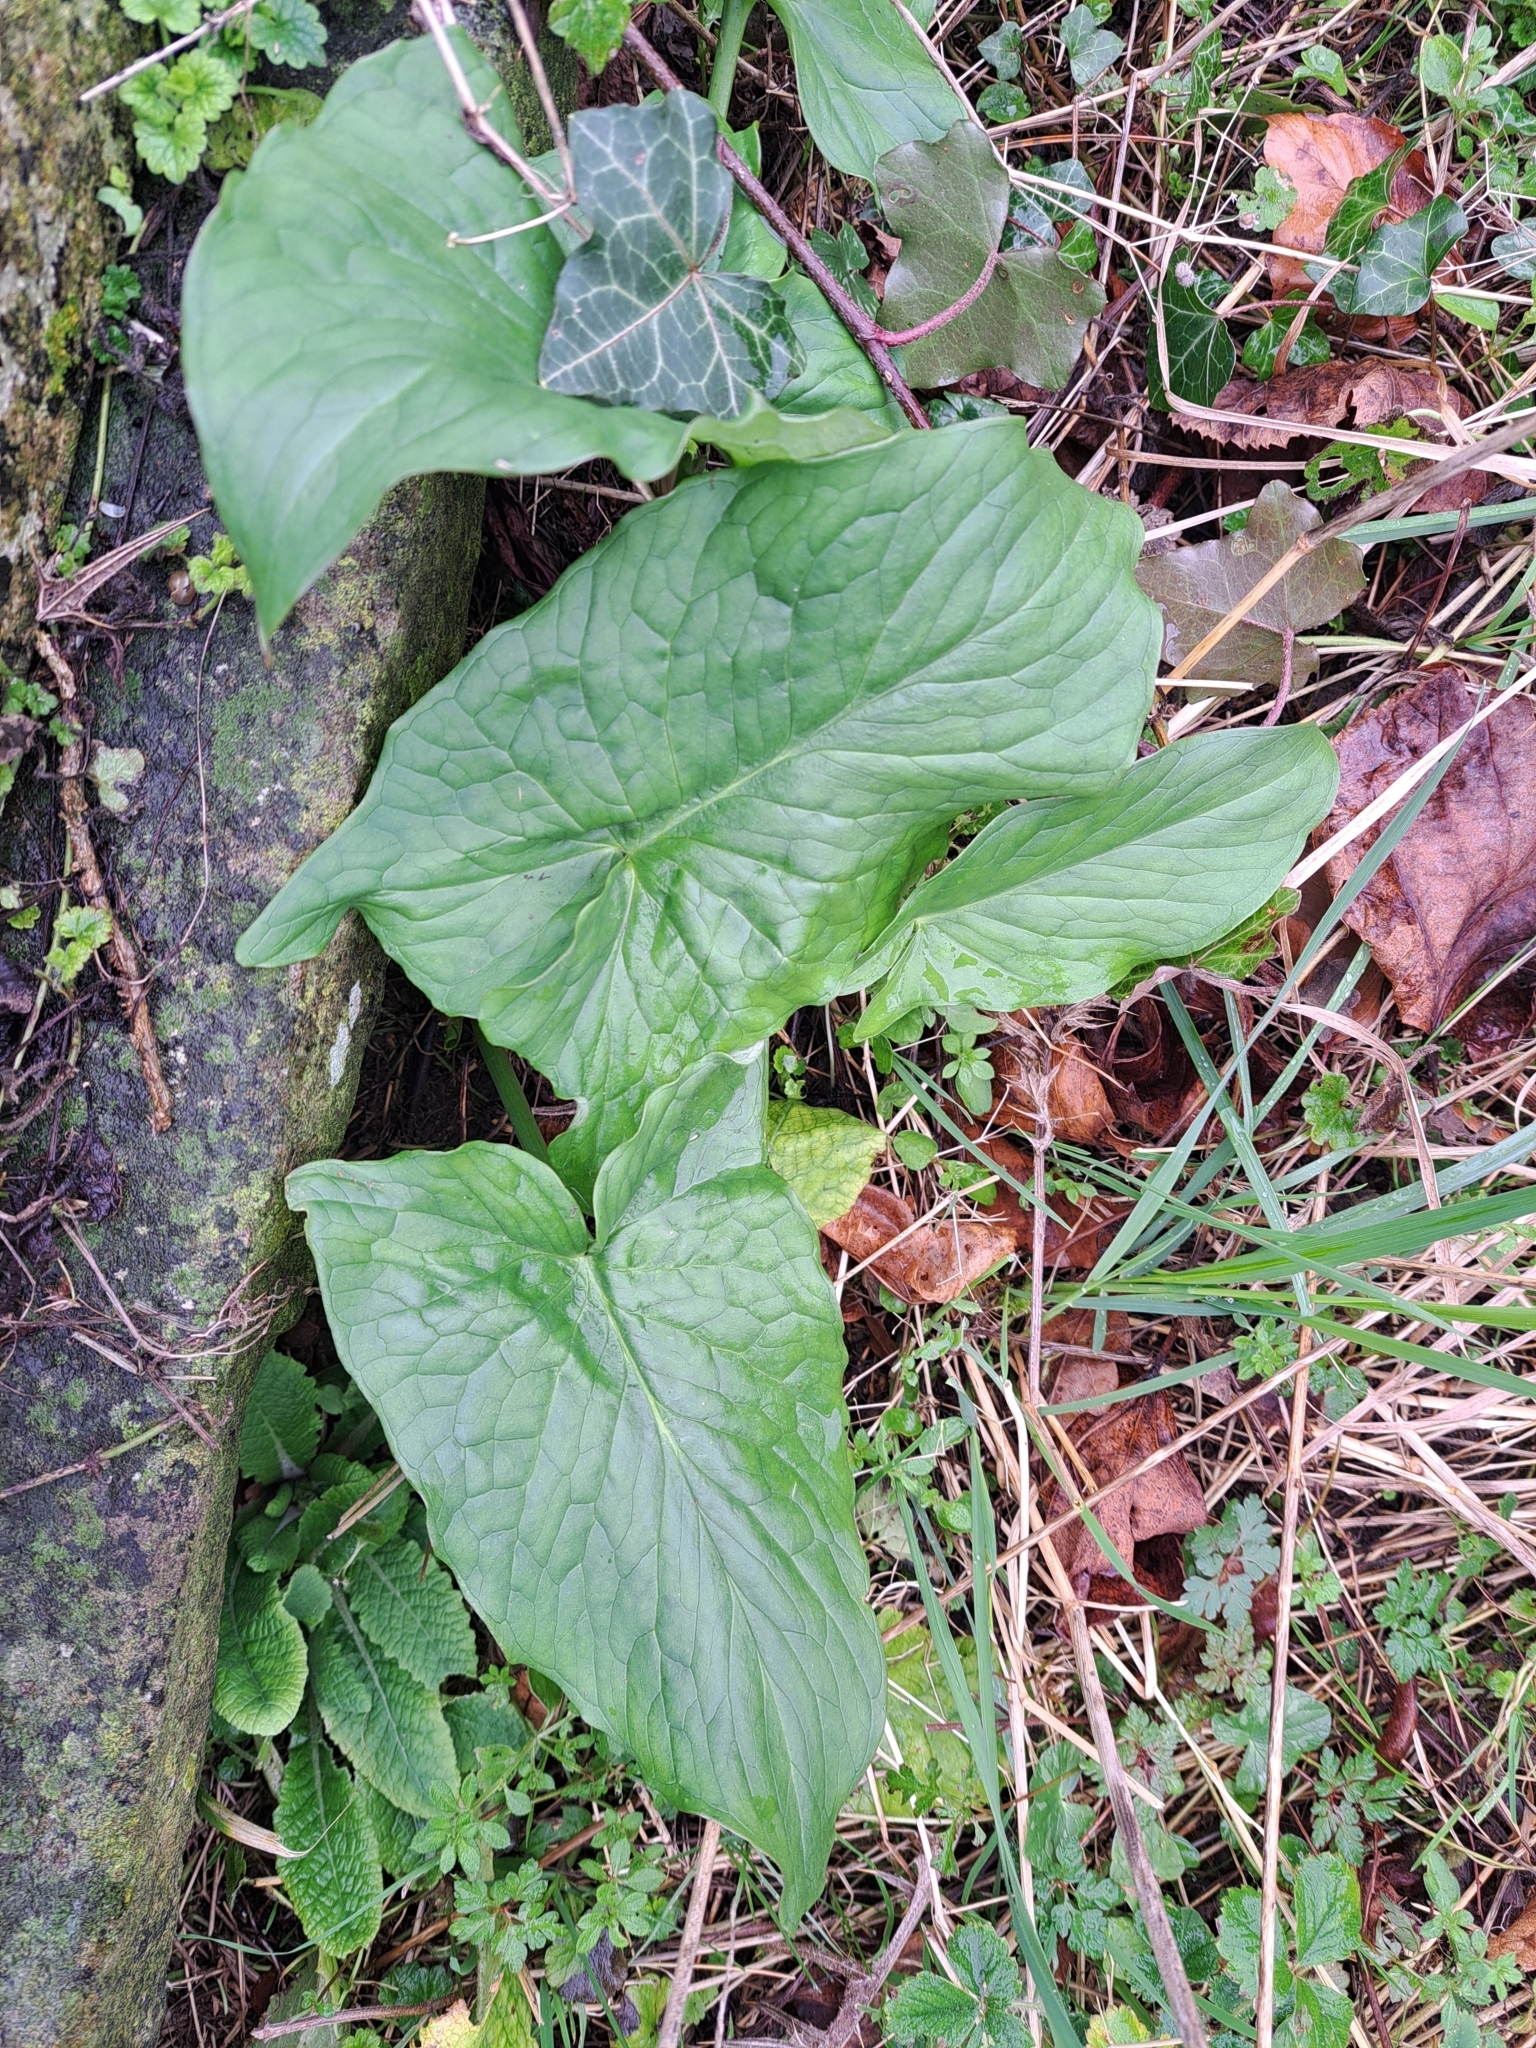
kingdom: Plantae
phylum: Tracheophyta
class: Liliopsida
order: Alismatales
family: Araceae
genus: Arum
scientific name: Arum maculatum
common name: Lords-and-ladies
